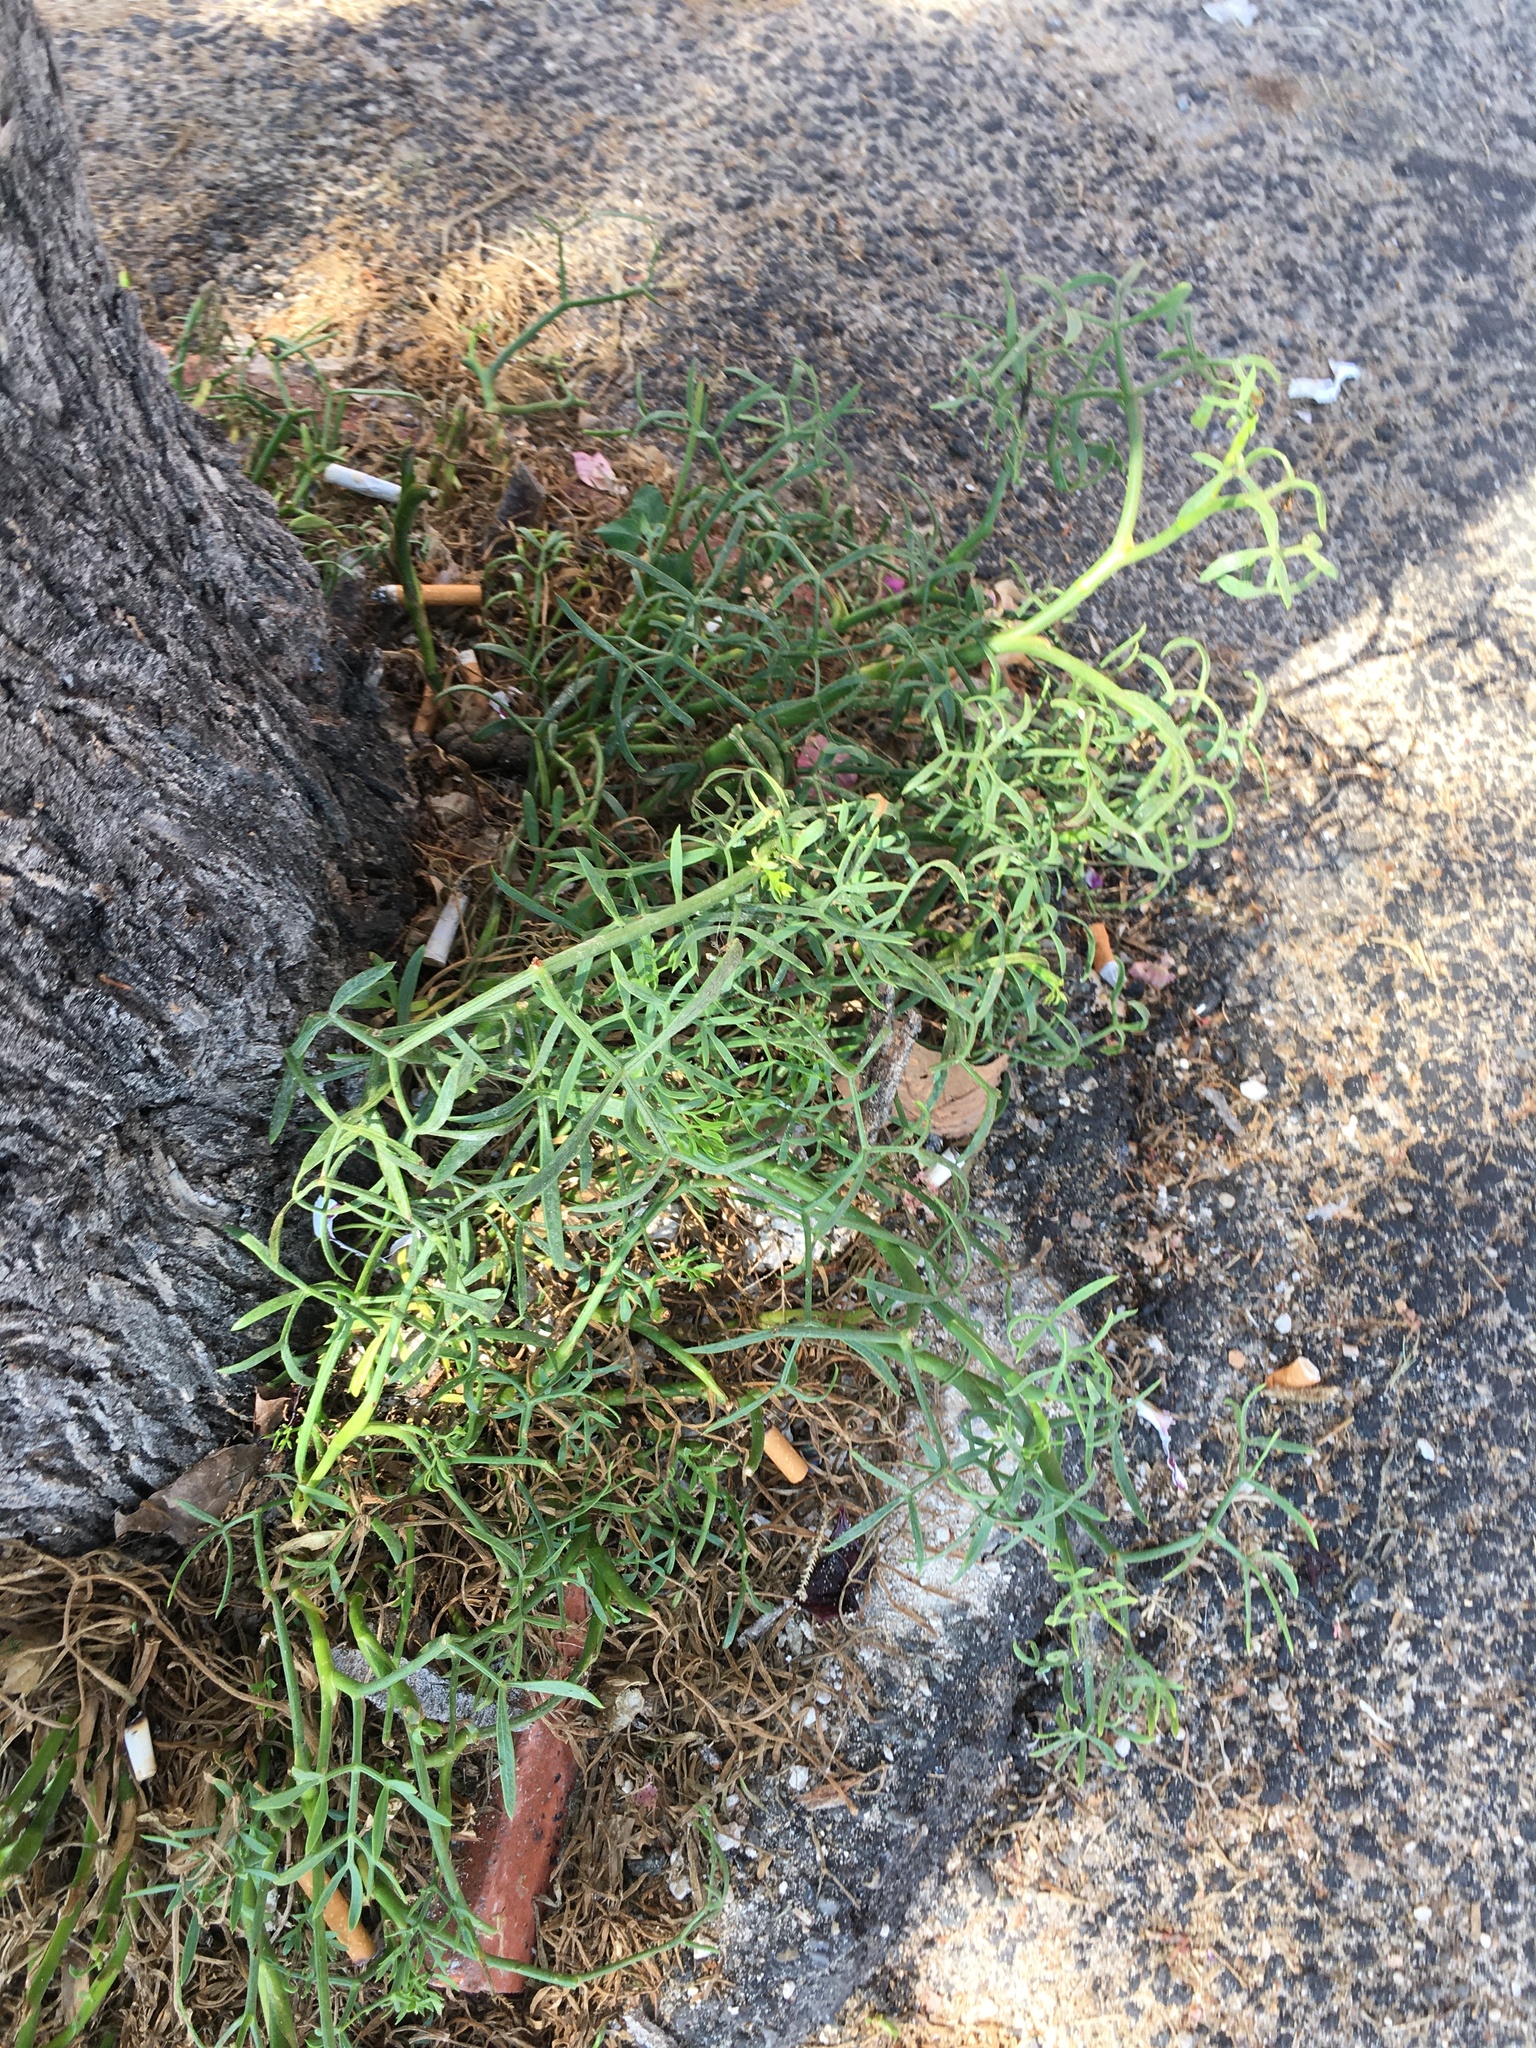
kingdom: Plantae
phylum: Tracheophyta
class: Magnoliopsida
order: Apiales
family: Apiaceae
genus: Crithmum
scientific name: Crithmum maritimum
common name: Rock samphire
